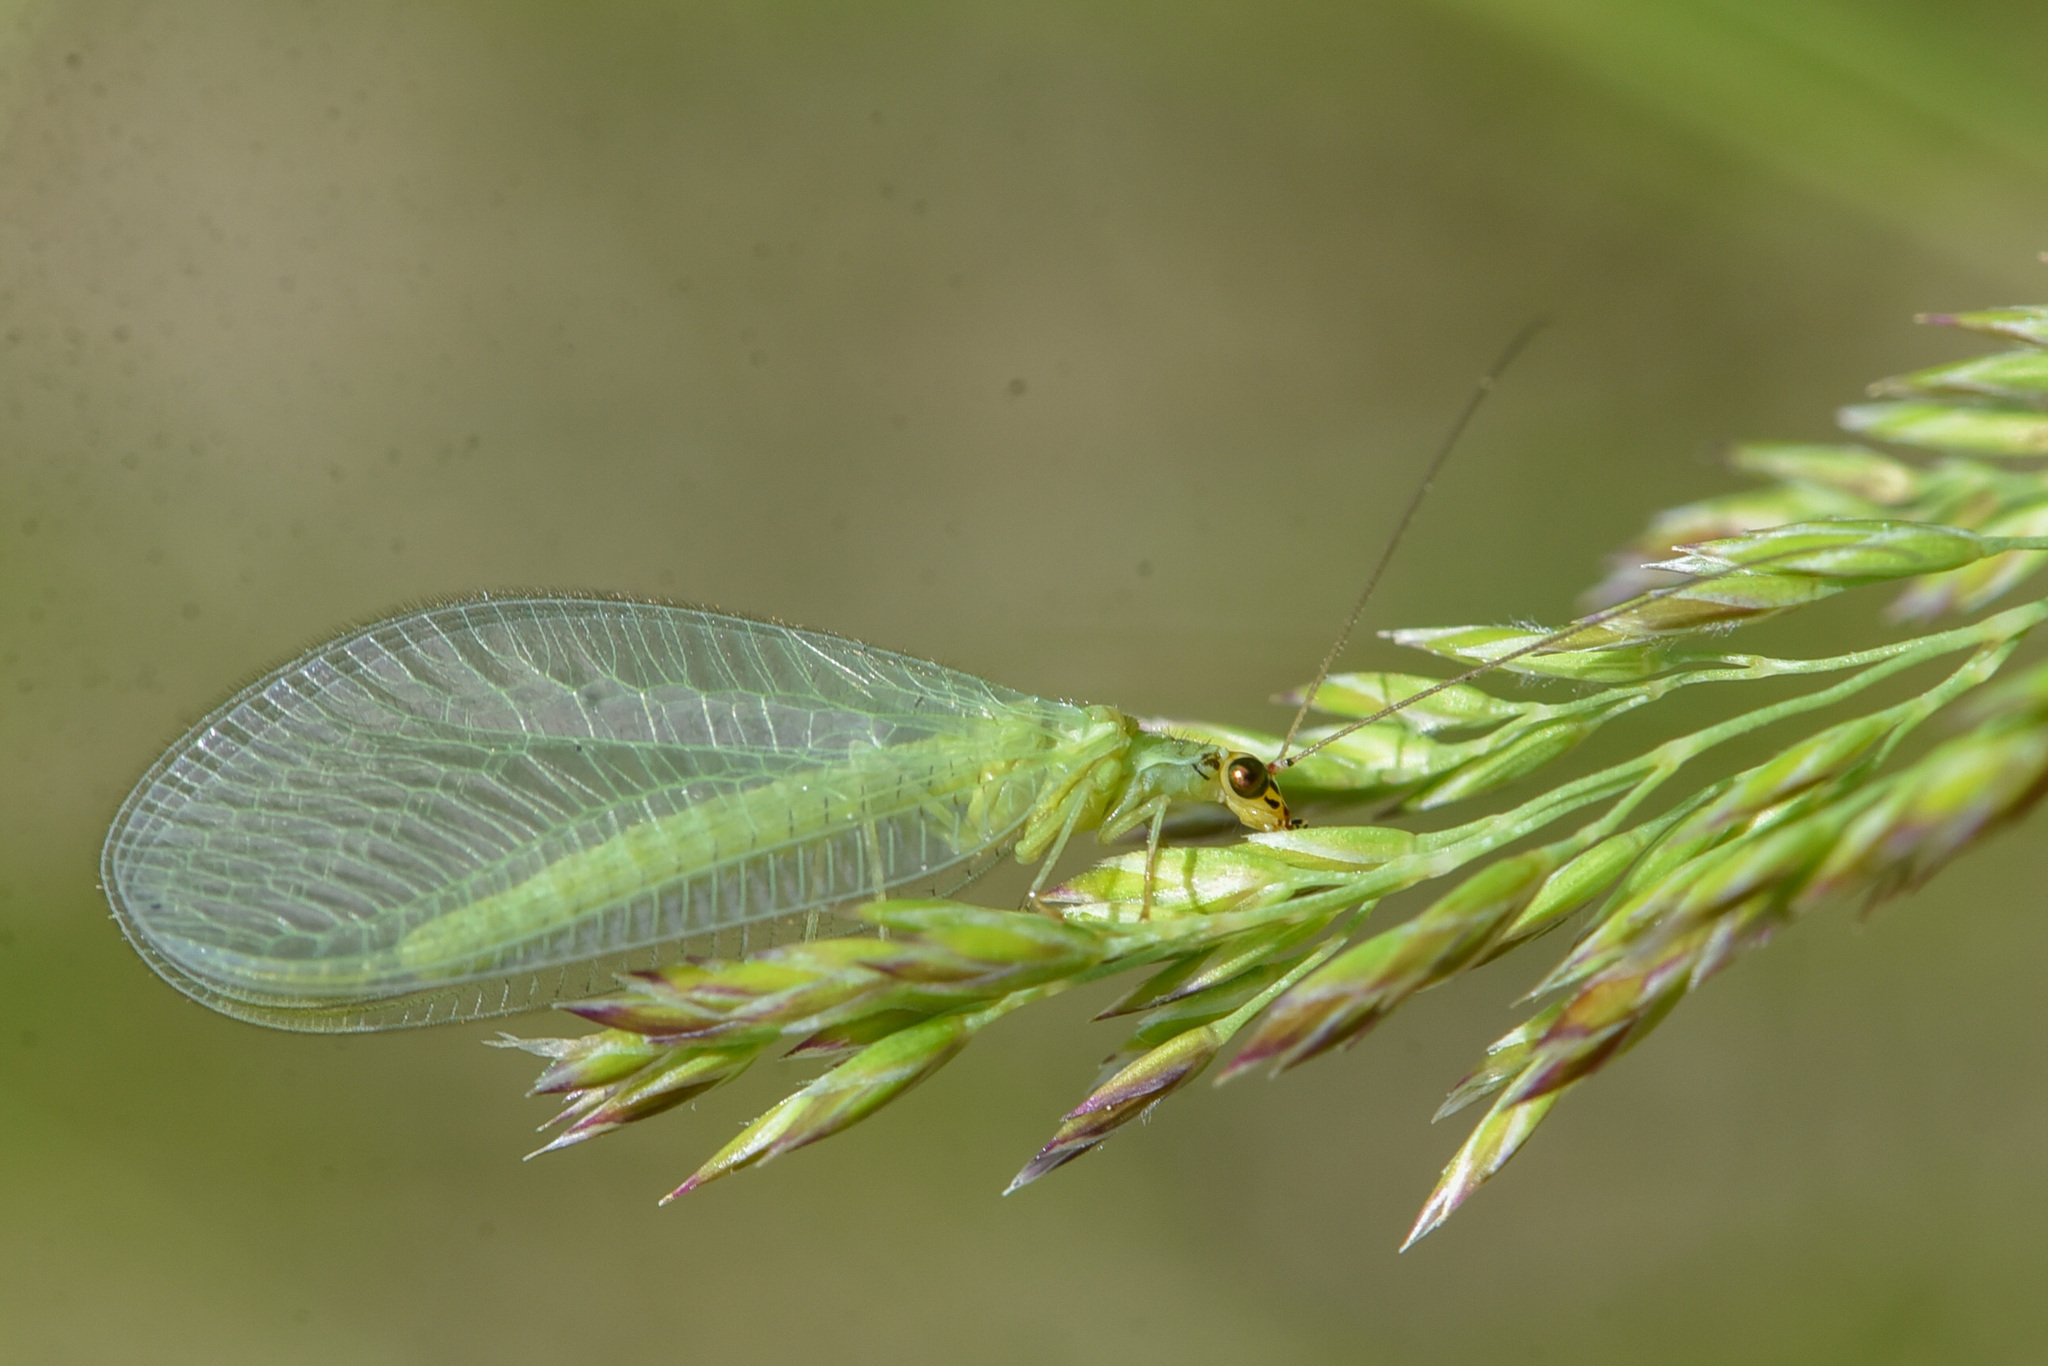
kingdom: Animalia
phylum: Arthropoda
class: Insecta
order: Neuroptera
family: Chrysopidae
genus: Chrysopa
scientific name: Chrysopa oculata
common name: Golden-eyed lacewing
